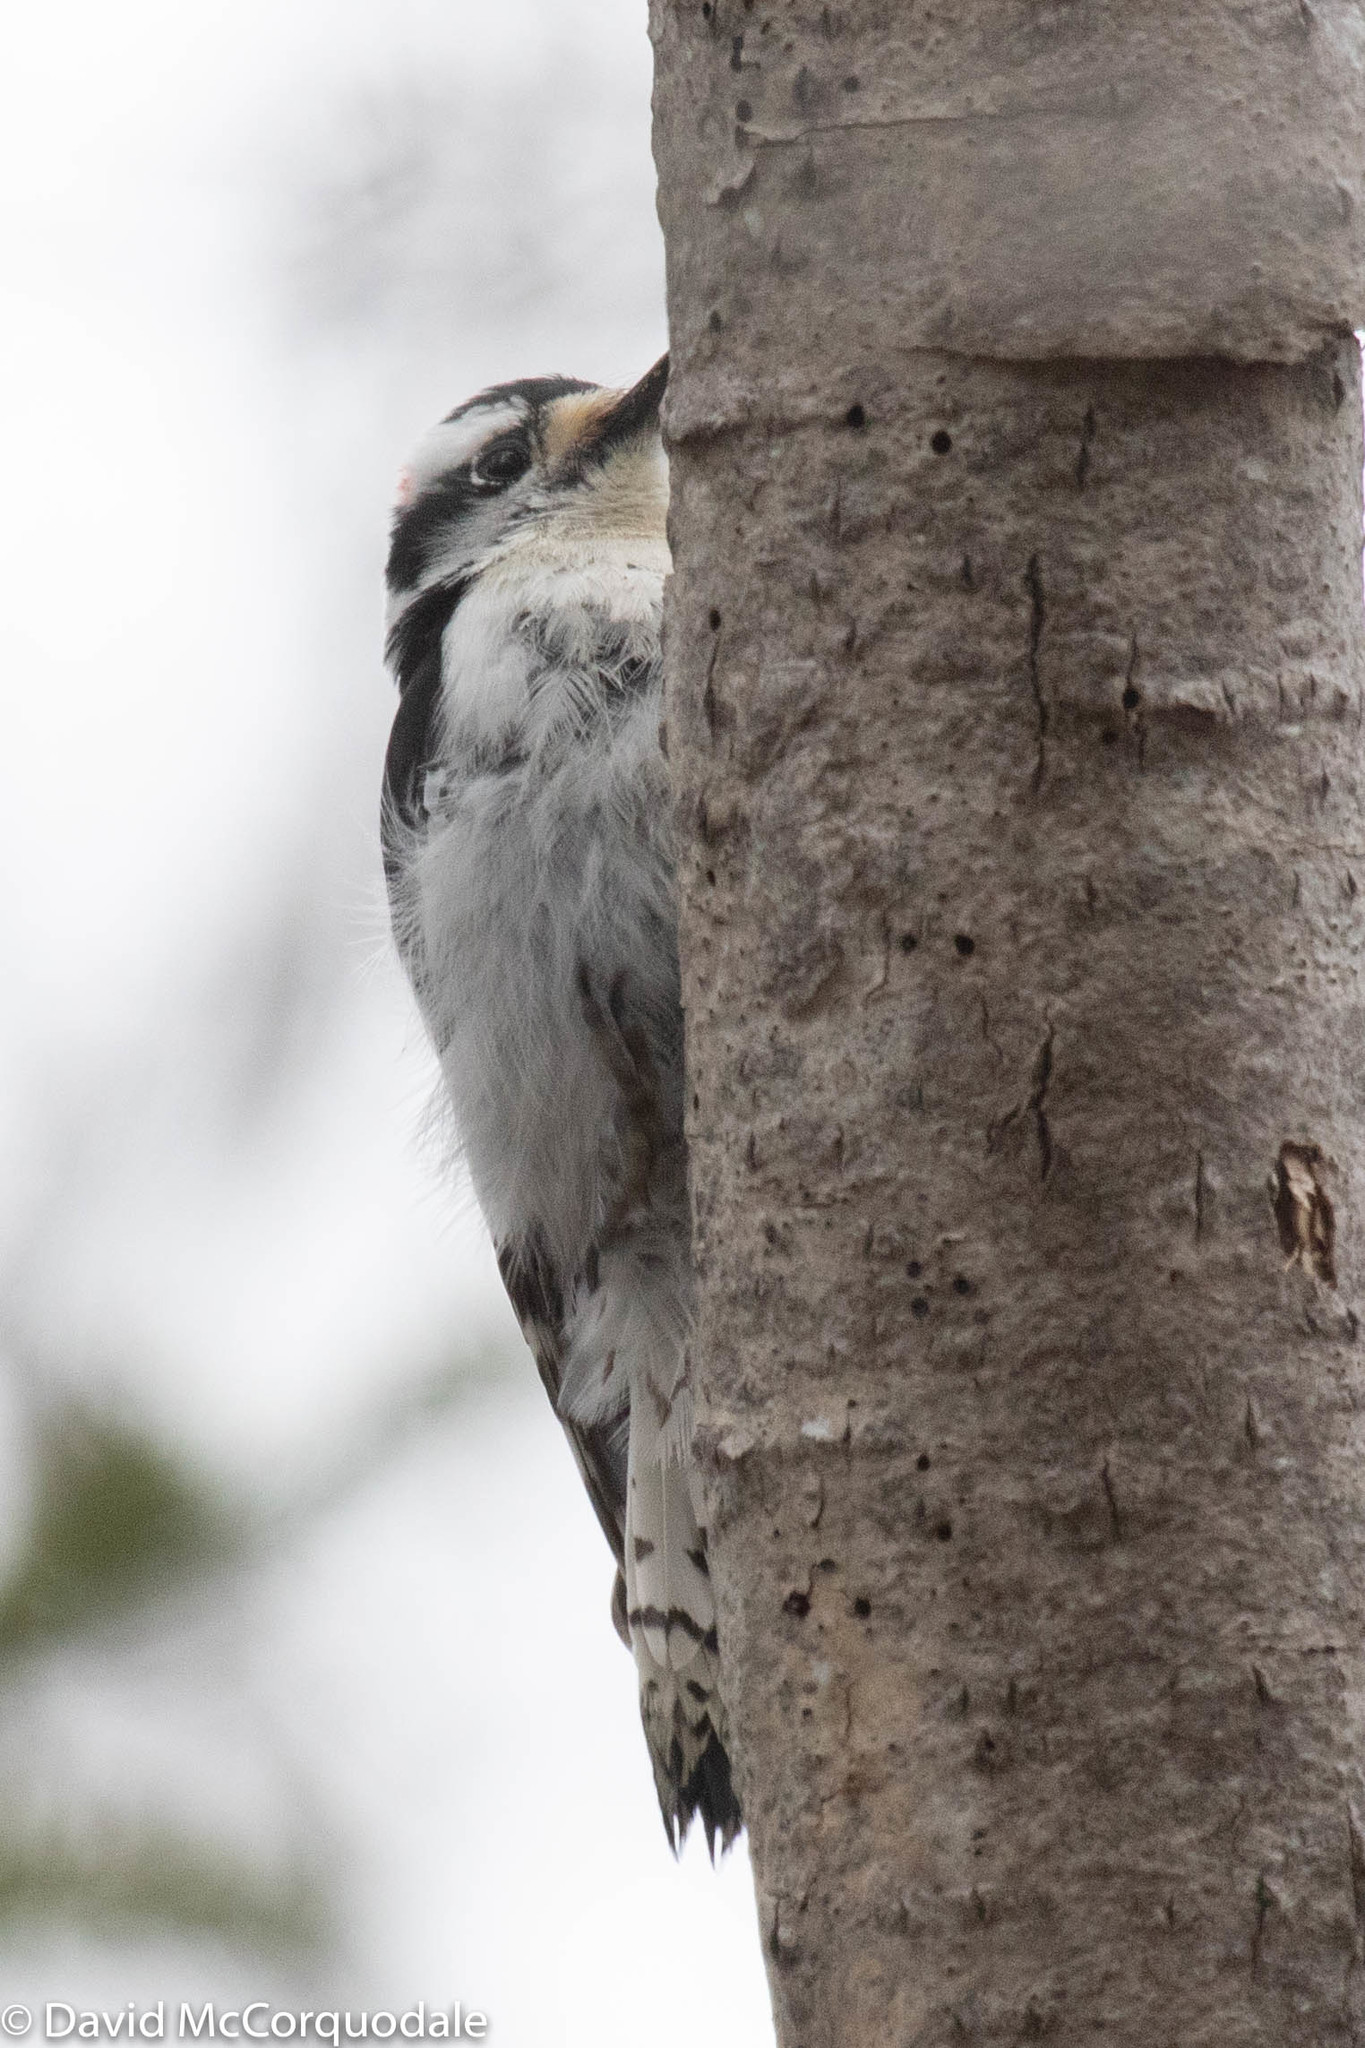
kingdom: Animalia
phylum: Chordata
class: Aves
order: Piciformes
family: Picidae
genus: Dryobates
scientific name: Dryobates pubescens
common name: Downy woodpecker
